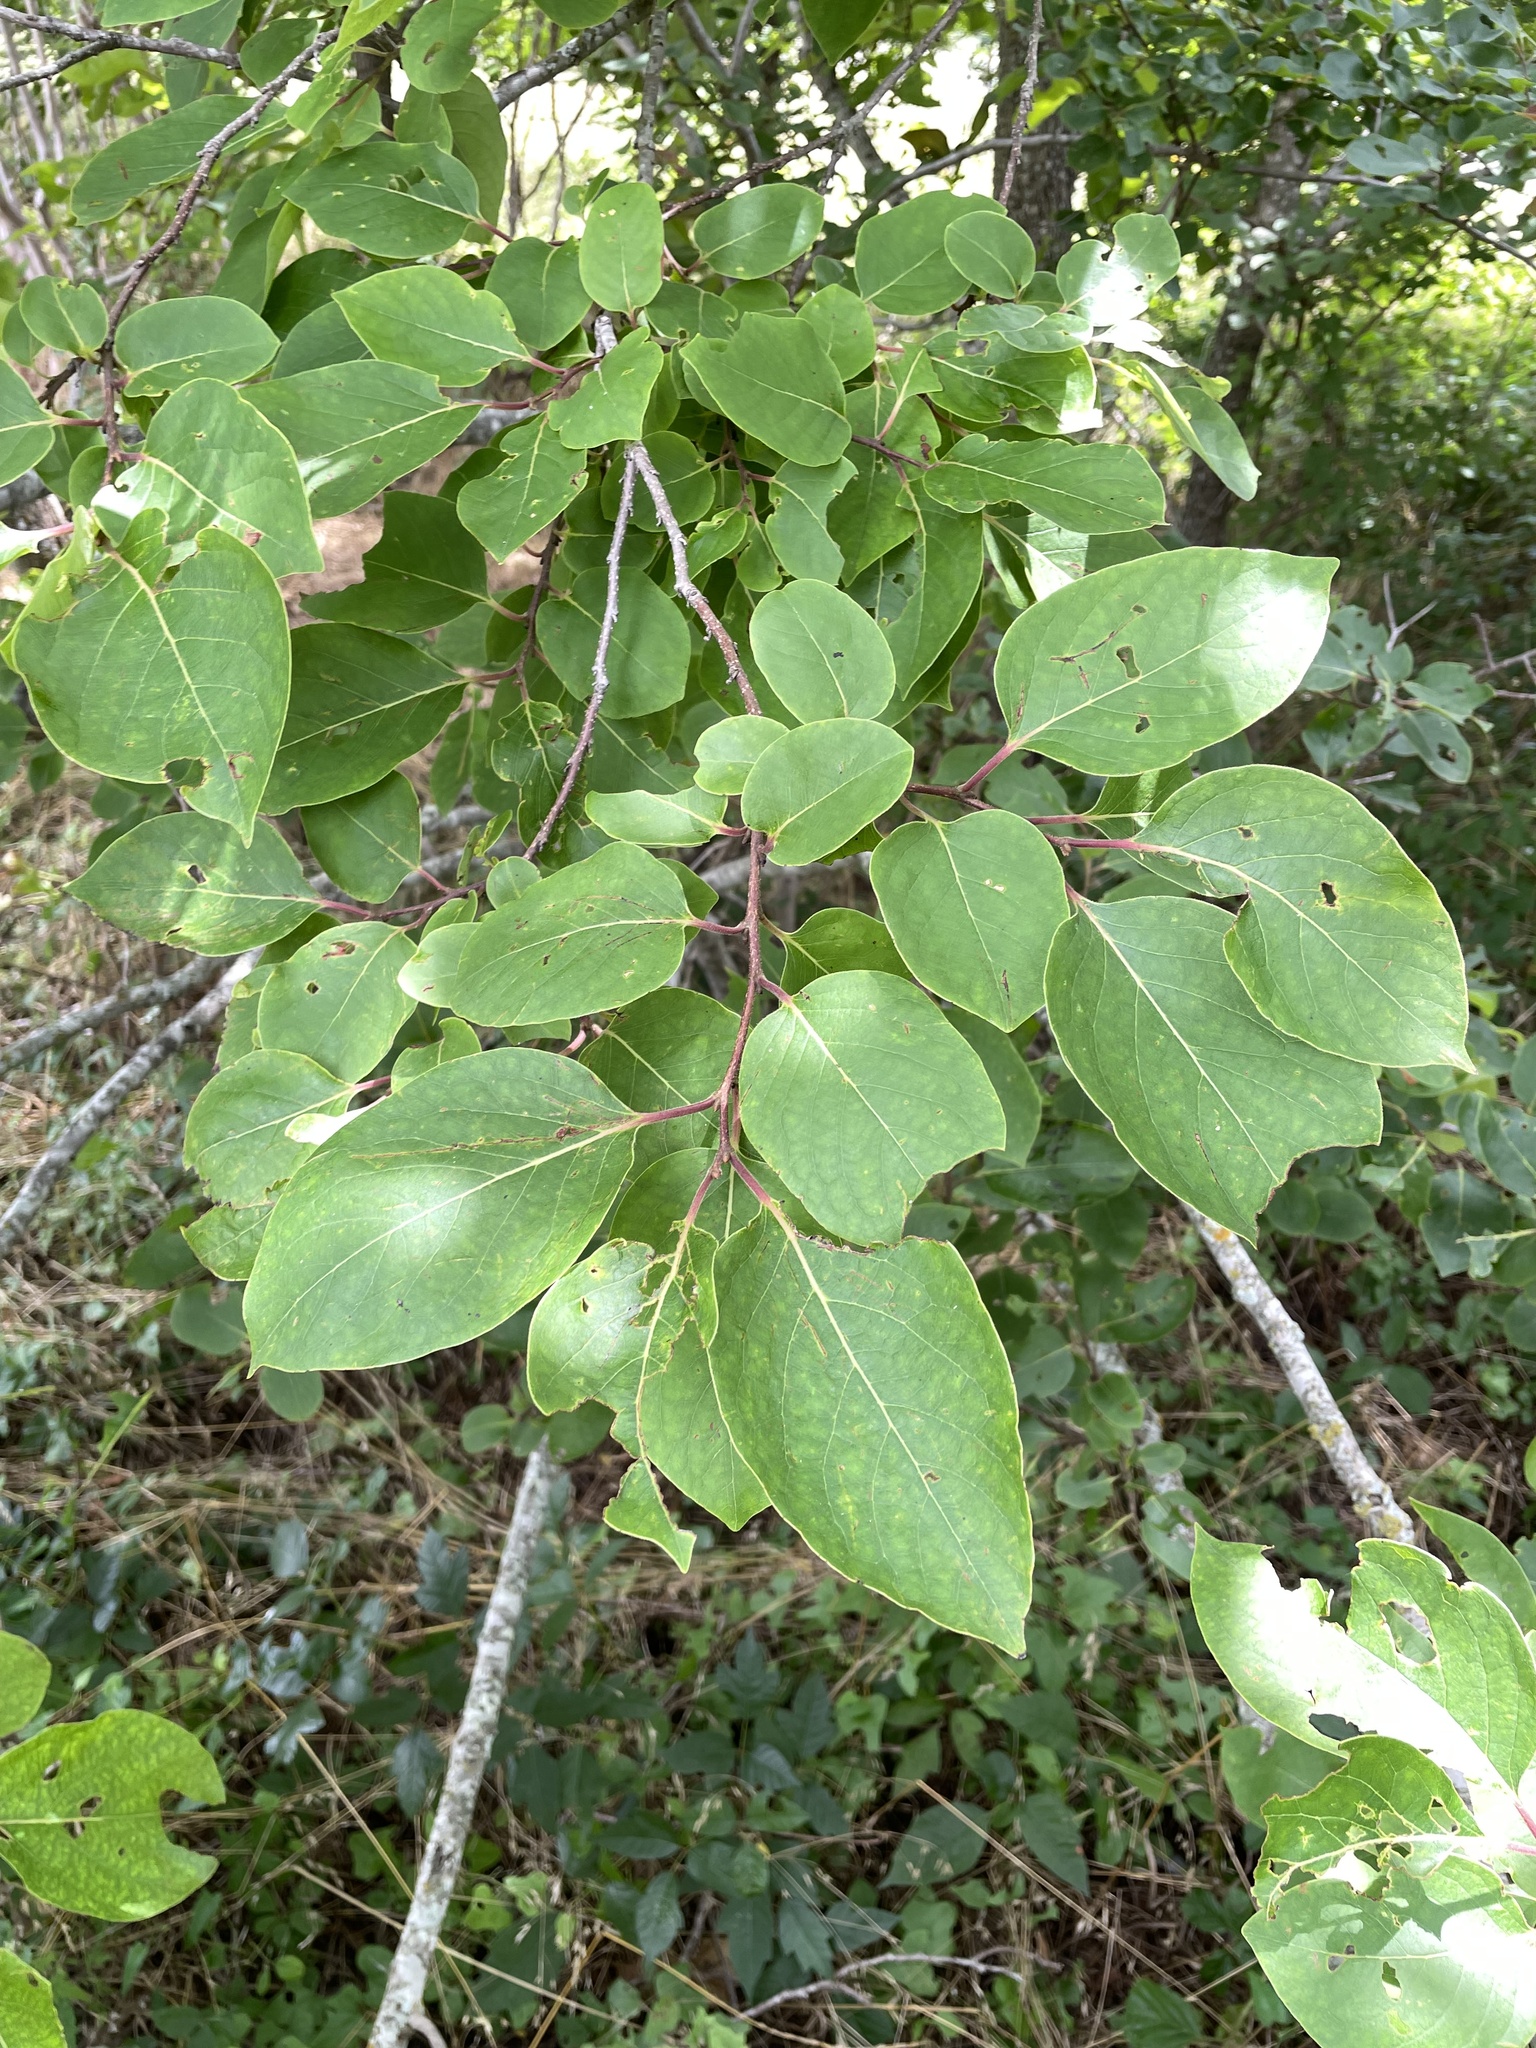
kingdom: Plantae
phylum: Tracheophyta
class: Magnoliopsida
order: Ericales
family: Ebenaceae
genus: Diospyros
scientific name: Diospyros virginiana
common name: Persimmon
